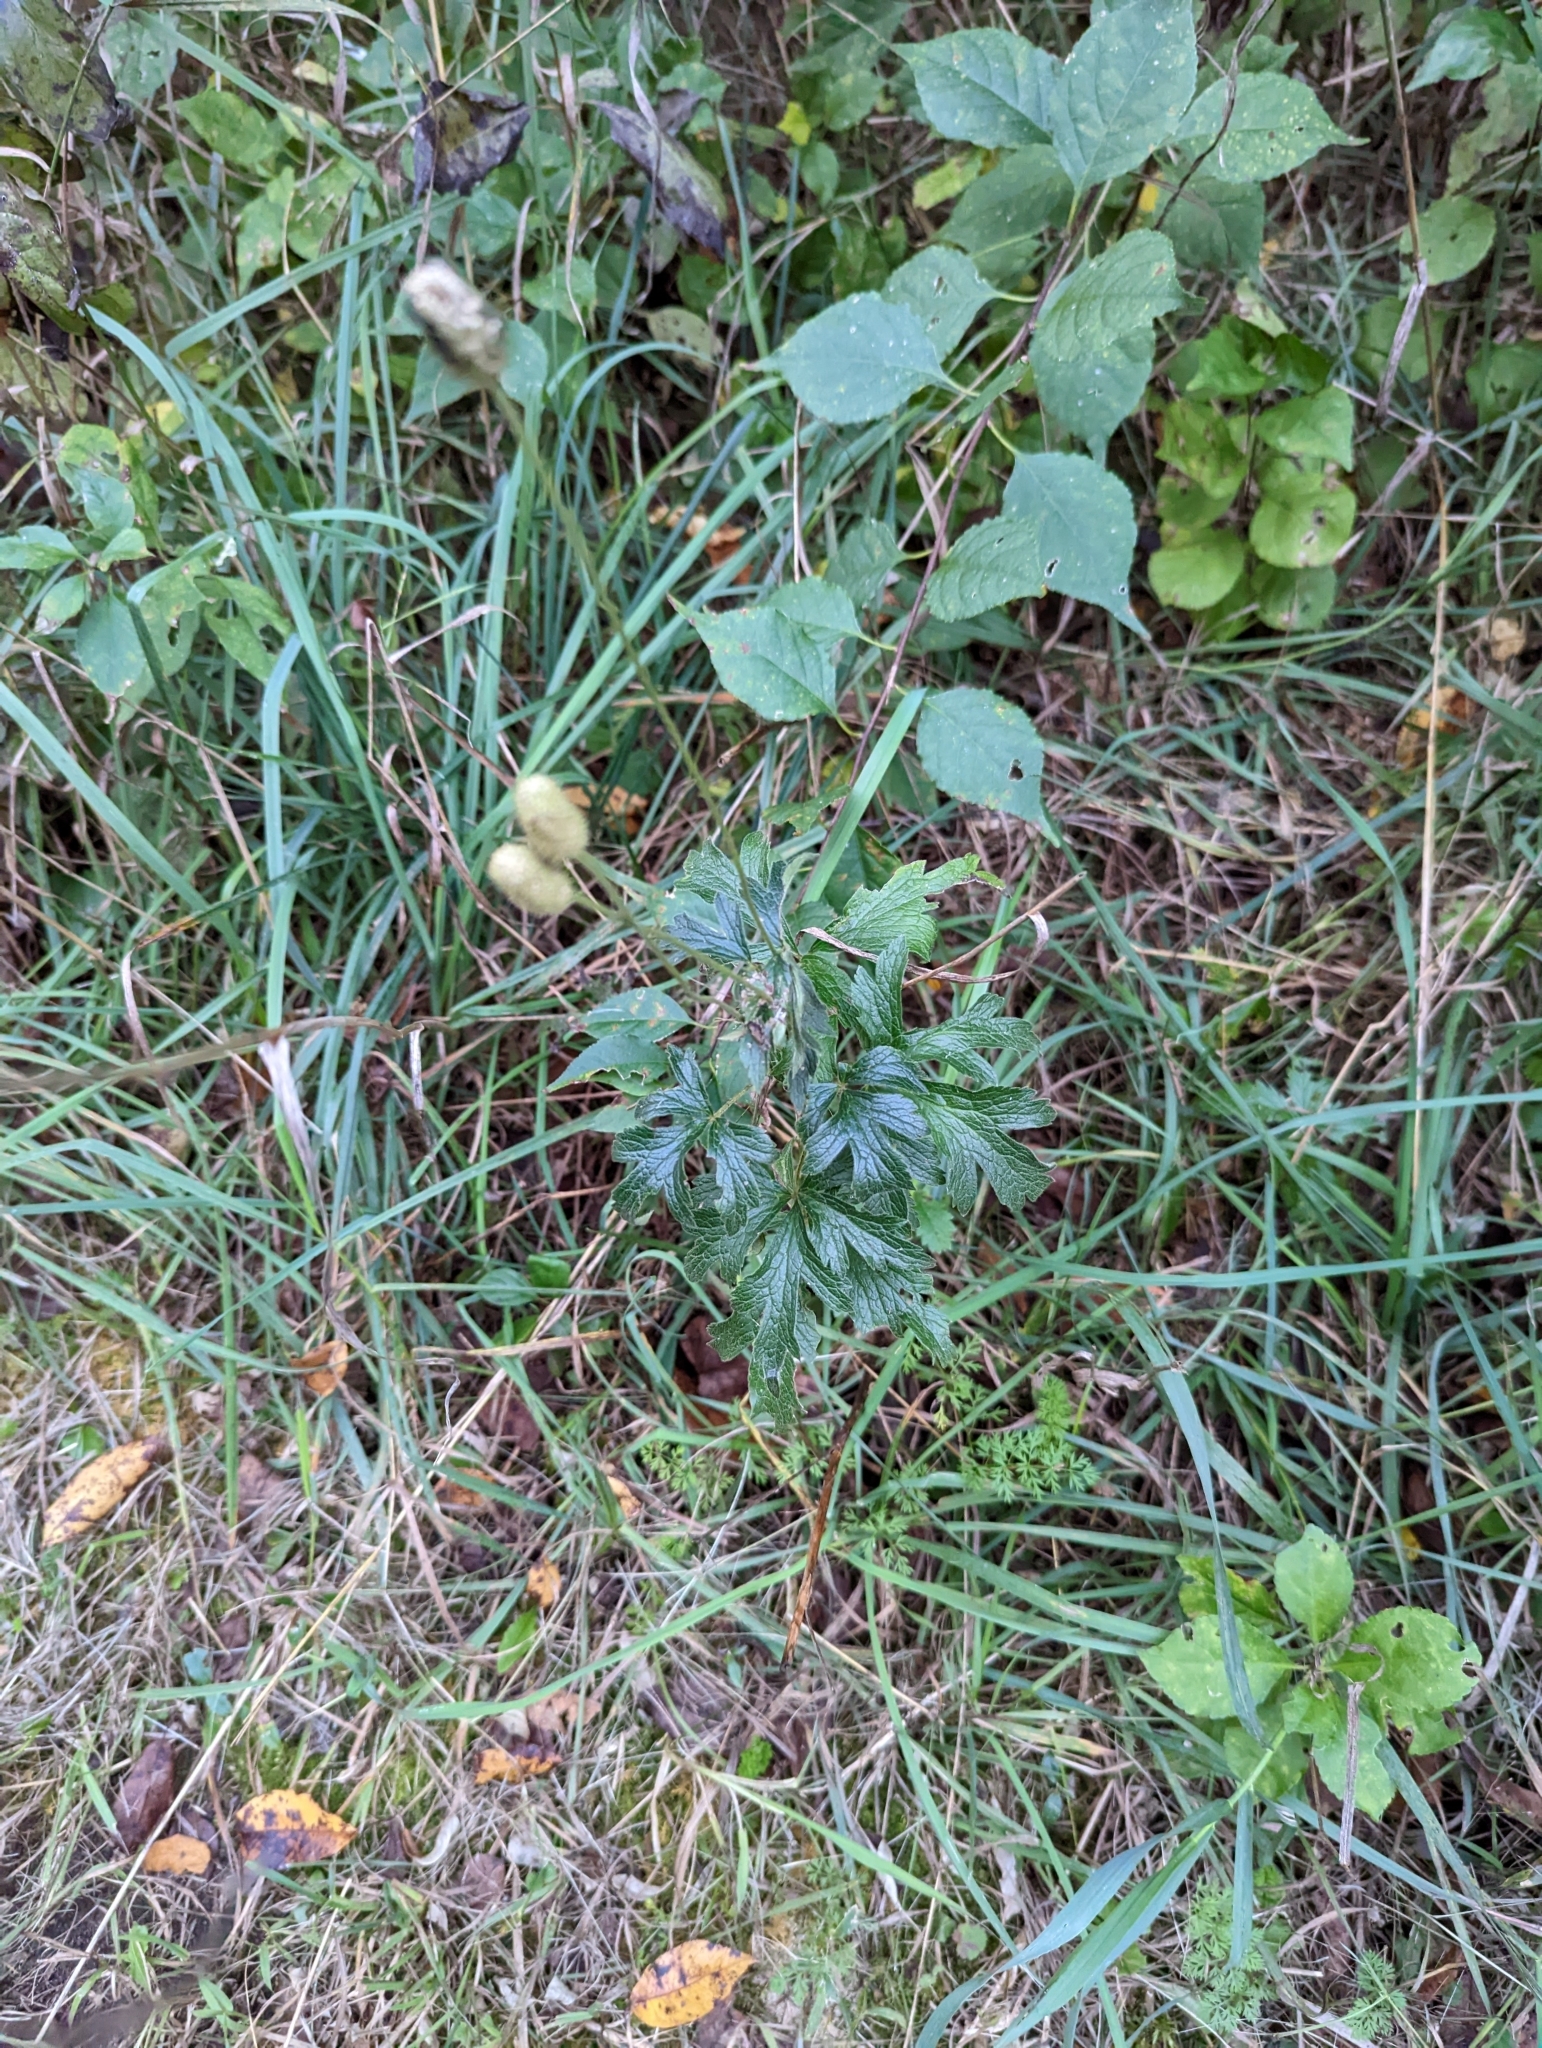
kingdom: Plantae
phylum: Tracheophyta
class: Magnoliopsida
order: Ranunculales
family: Ranunculaceae
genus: Anemone
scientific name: Anemone virginiana
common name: Tall anemone
